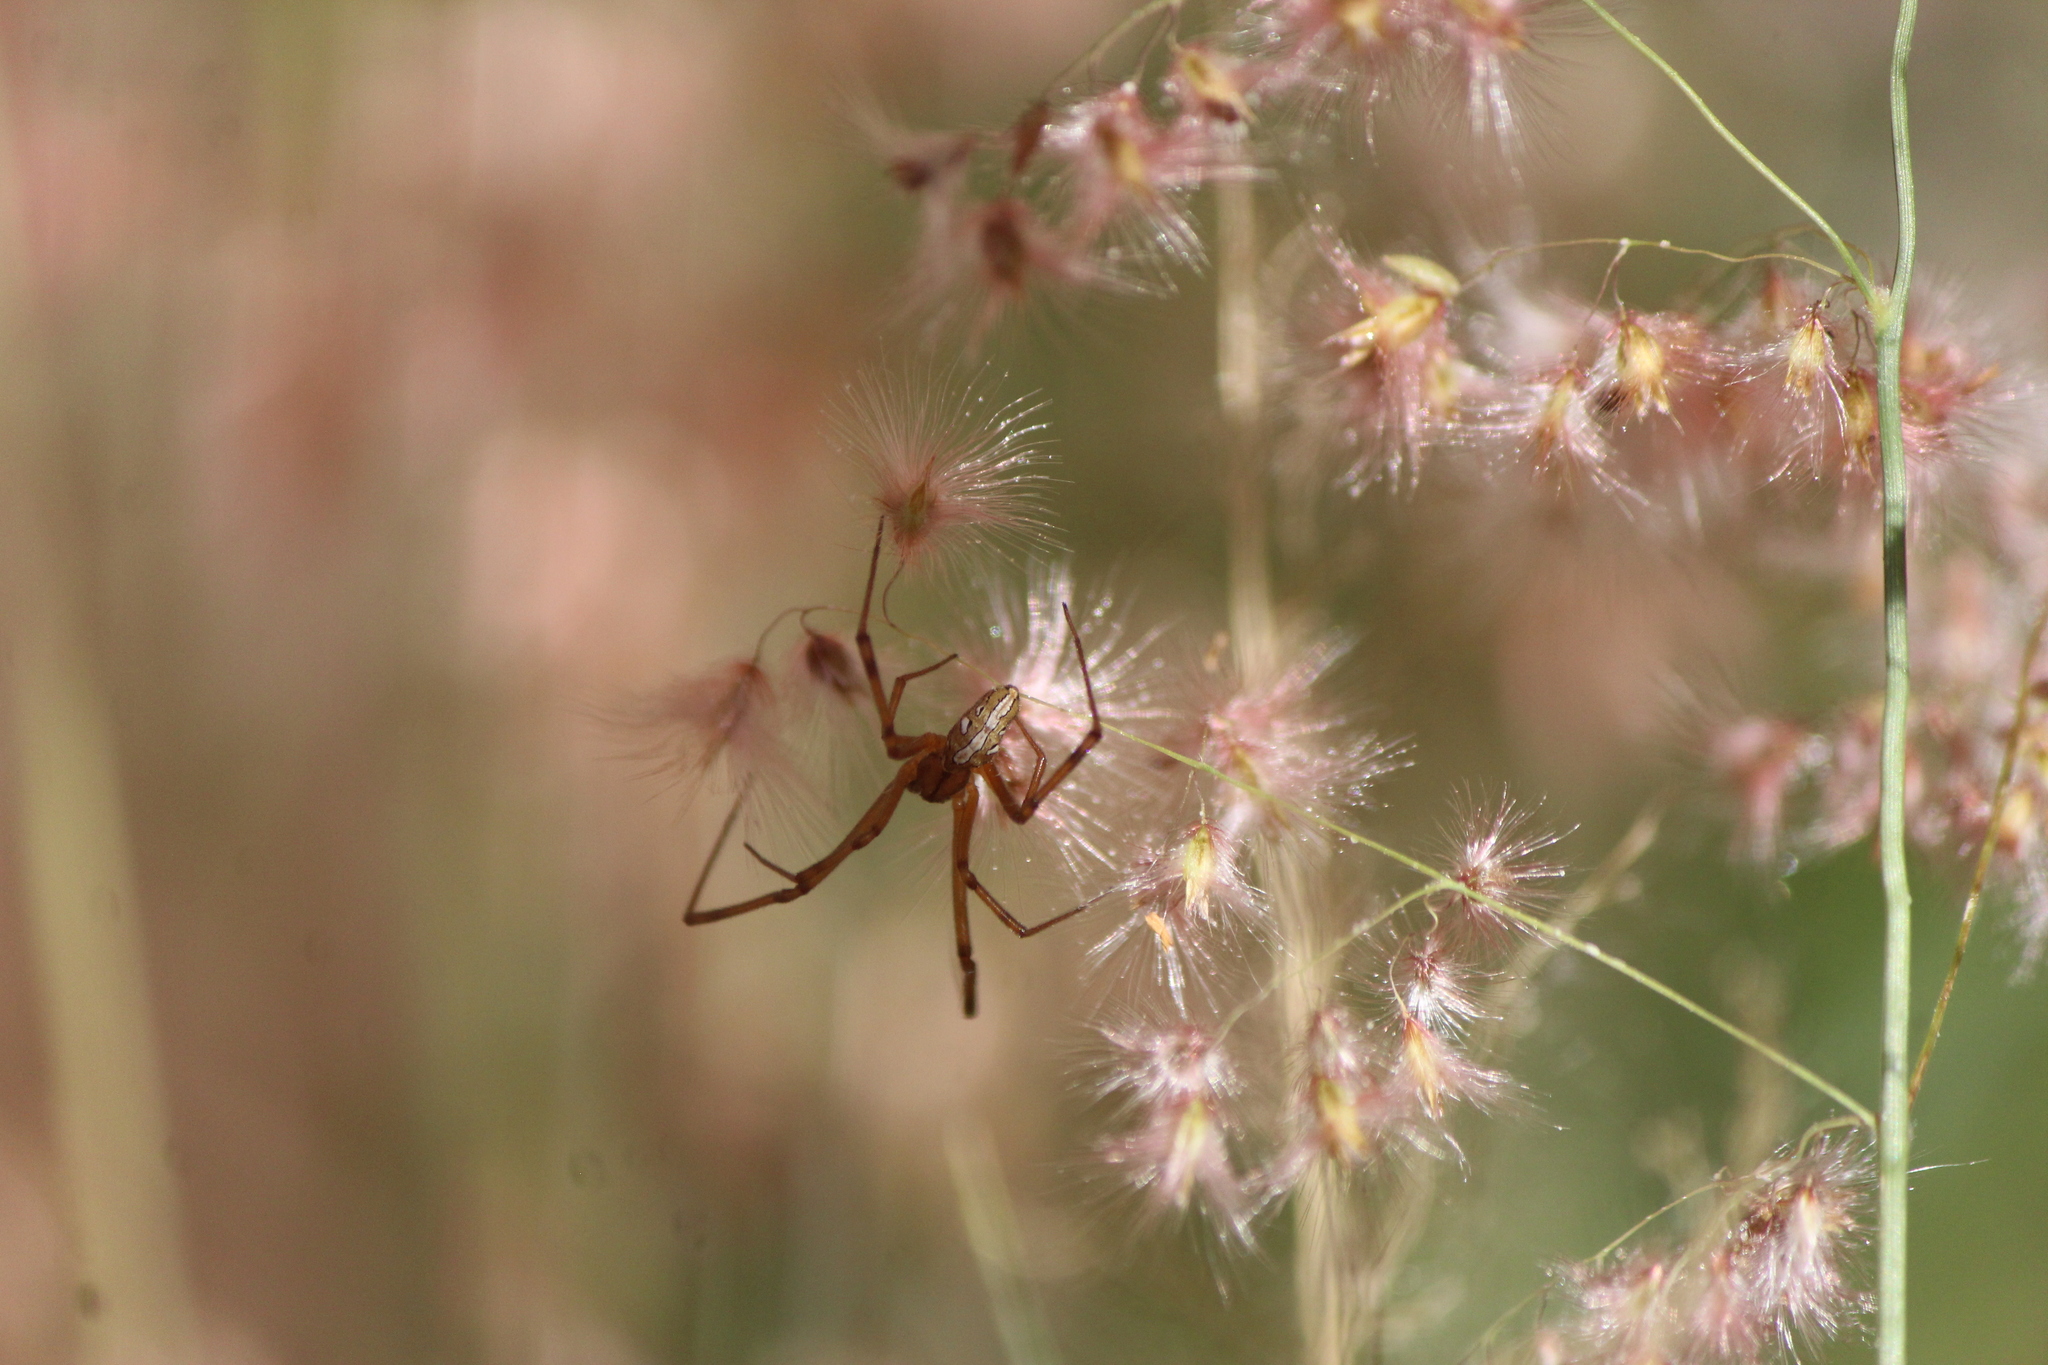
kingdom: Animalia
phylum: Arthropoda
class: Arachnida
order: Araneae
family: Theridiidae
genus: Latrodectus
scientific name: Latrodectus hesperus
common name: Western black widow
